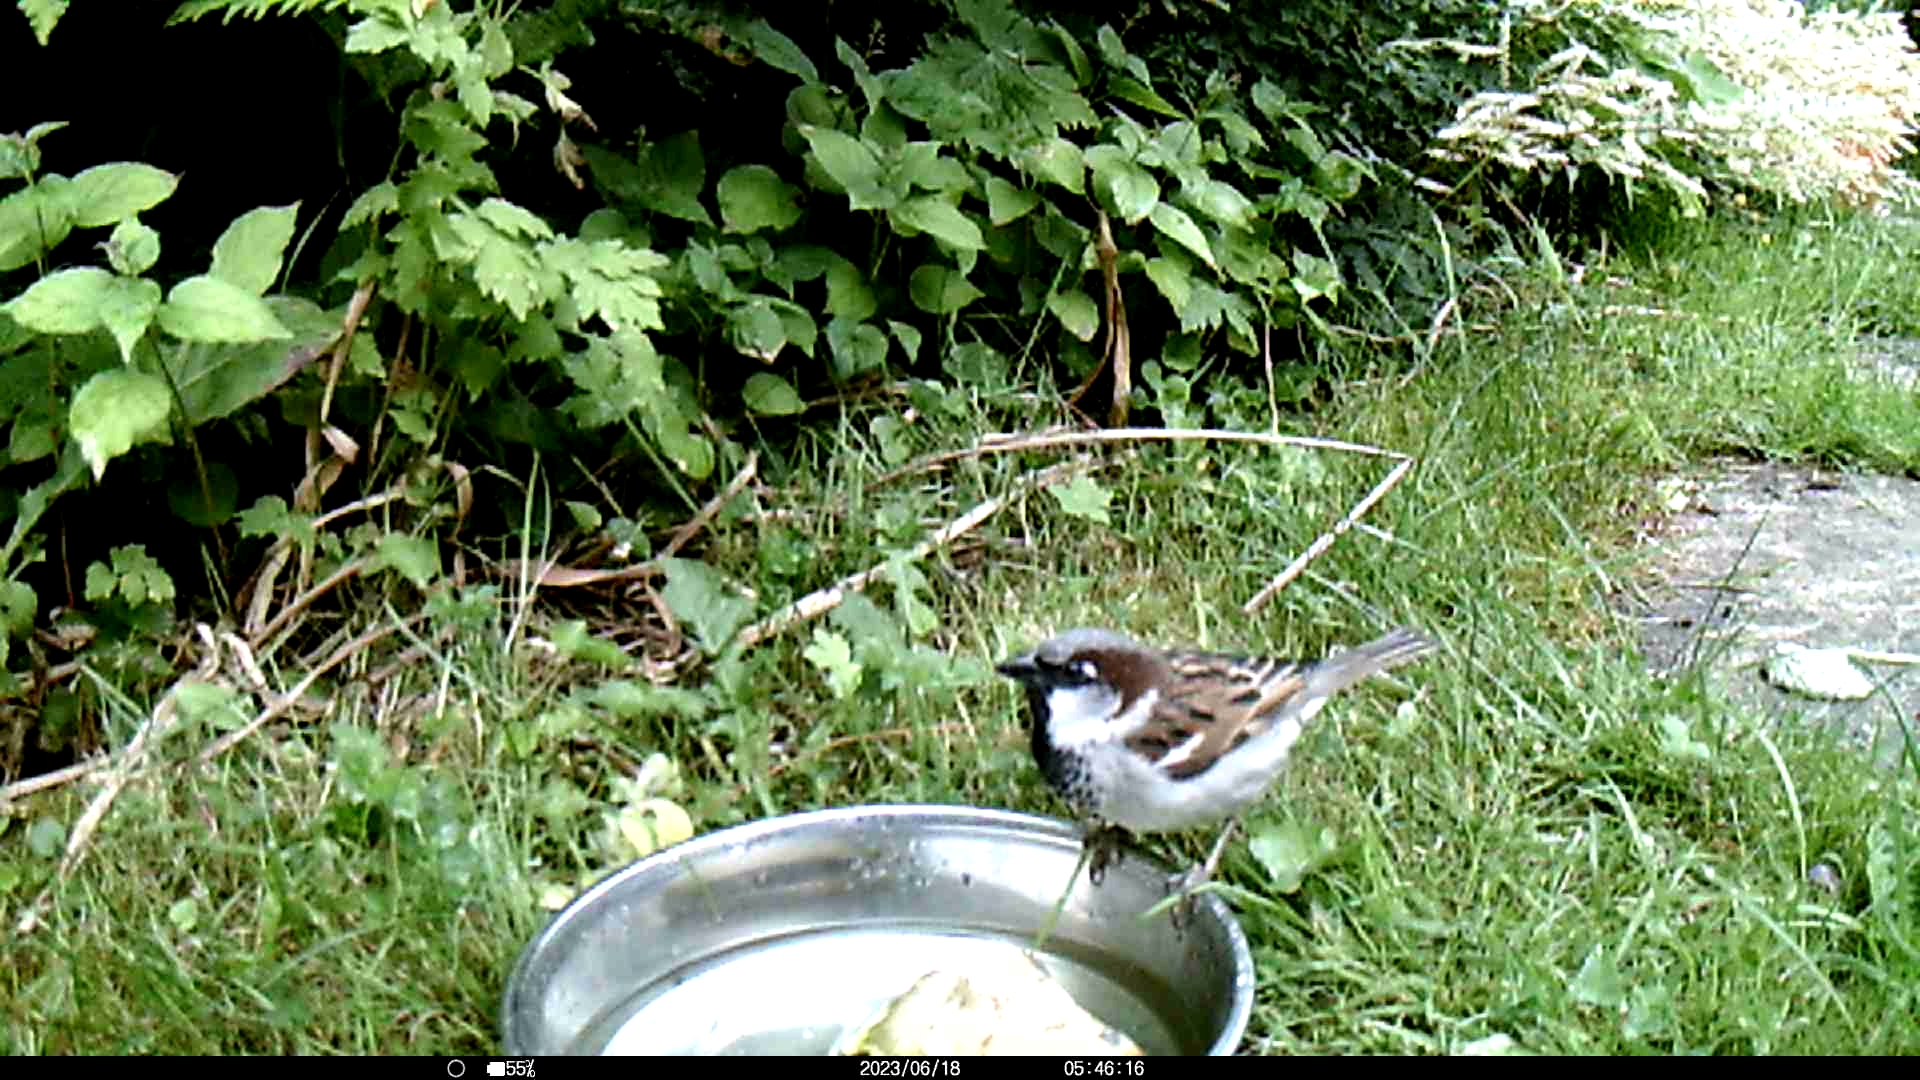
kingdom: Animalia
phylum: Chordata
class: Aves
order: Passeriformes
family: Passeridae
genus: Passer
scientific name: Passer domesticus
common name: House sparrow
